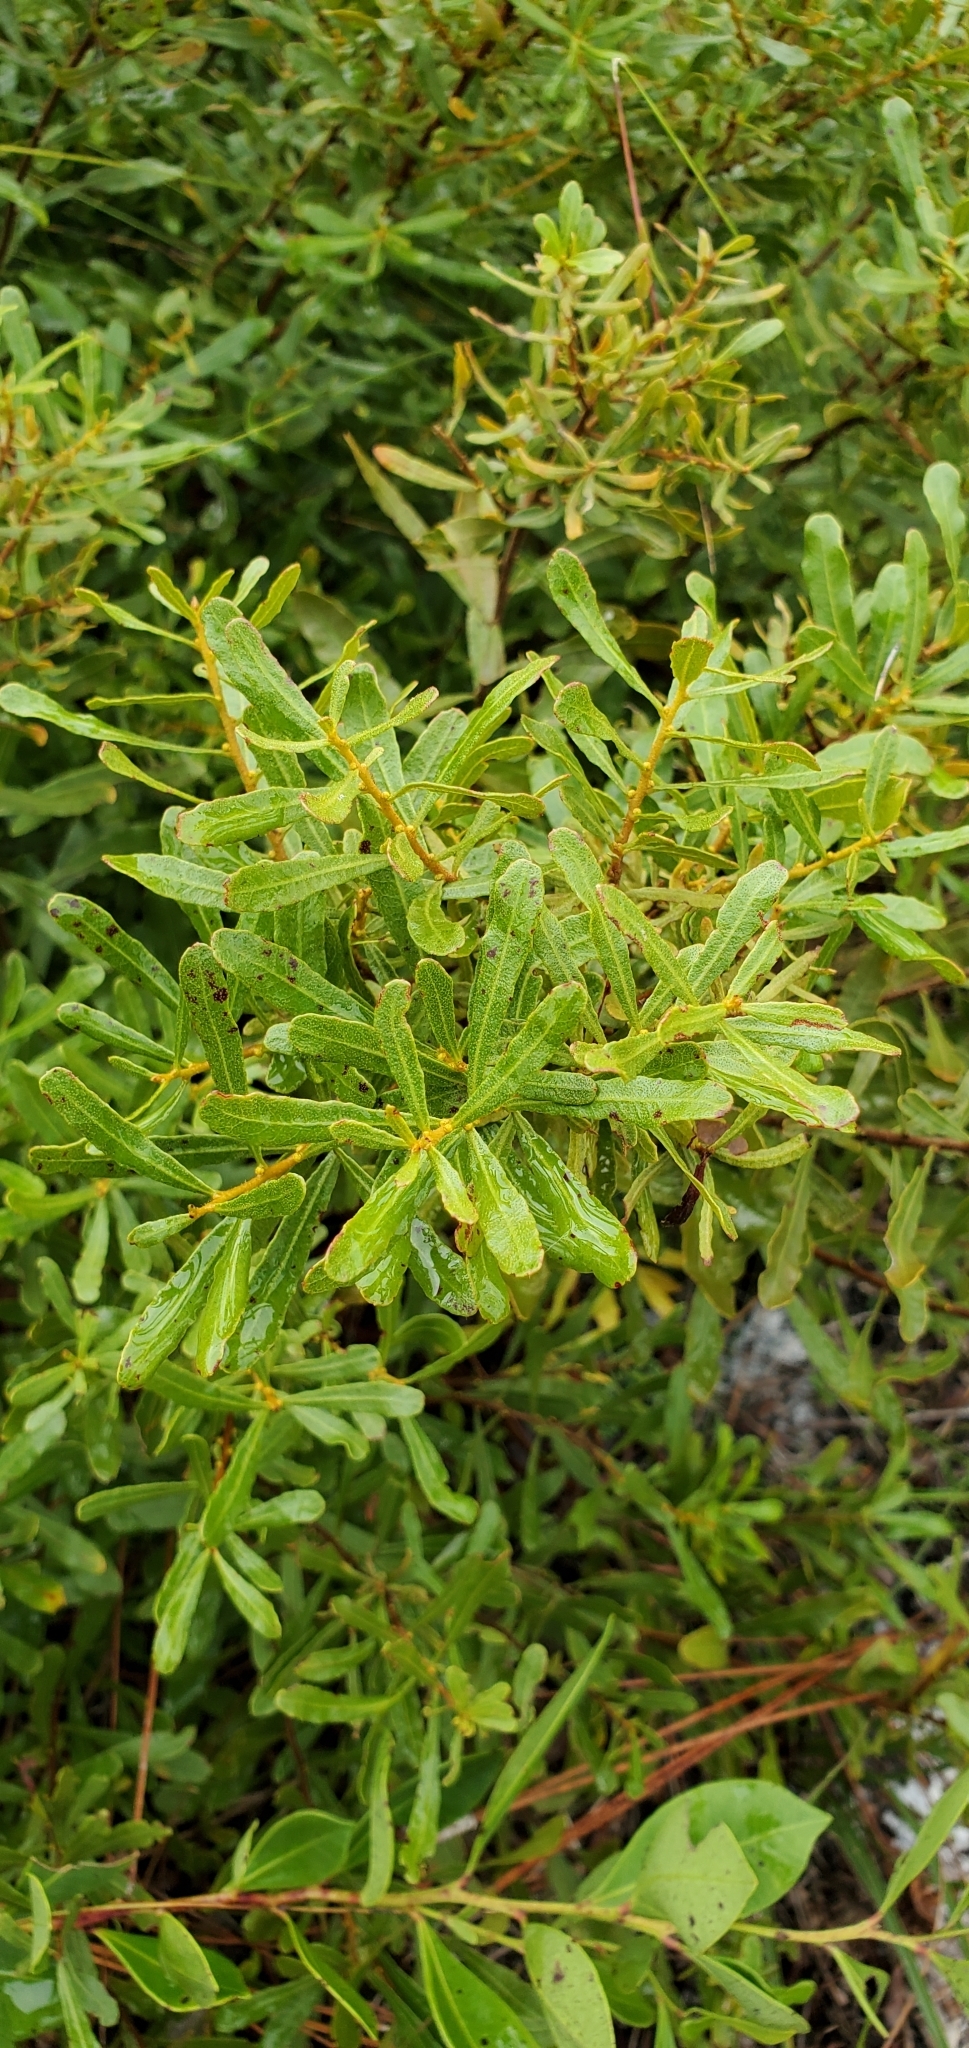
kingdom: Plantae
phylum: Tracheophyta
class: Magnoliopsida
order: Fagales
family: Myricaceae
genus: Morella
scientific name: Morella cerifera
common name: Wax myrtle
